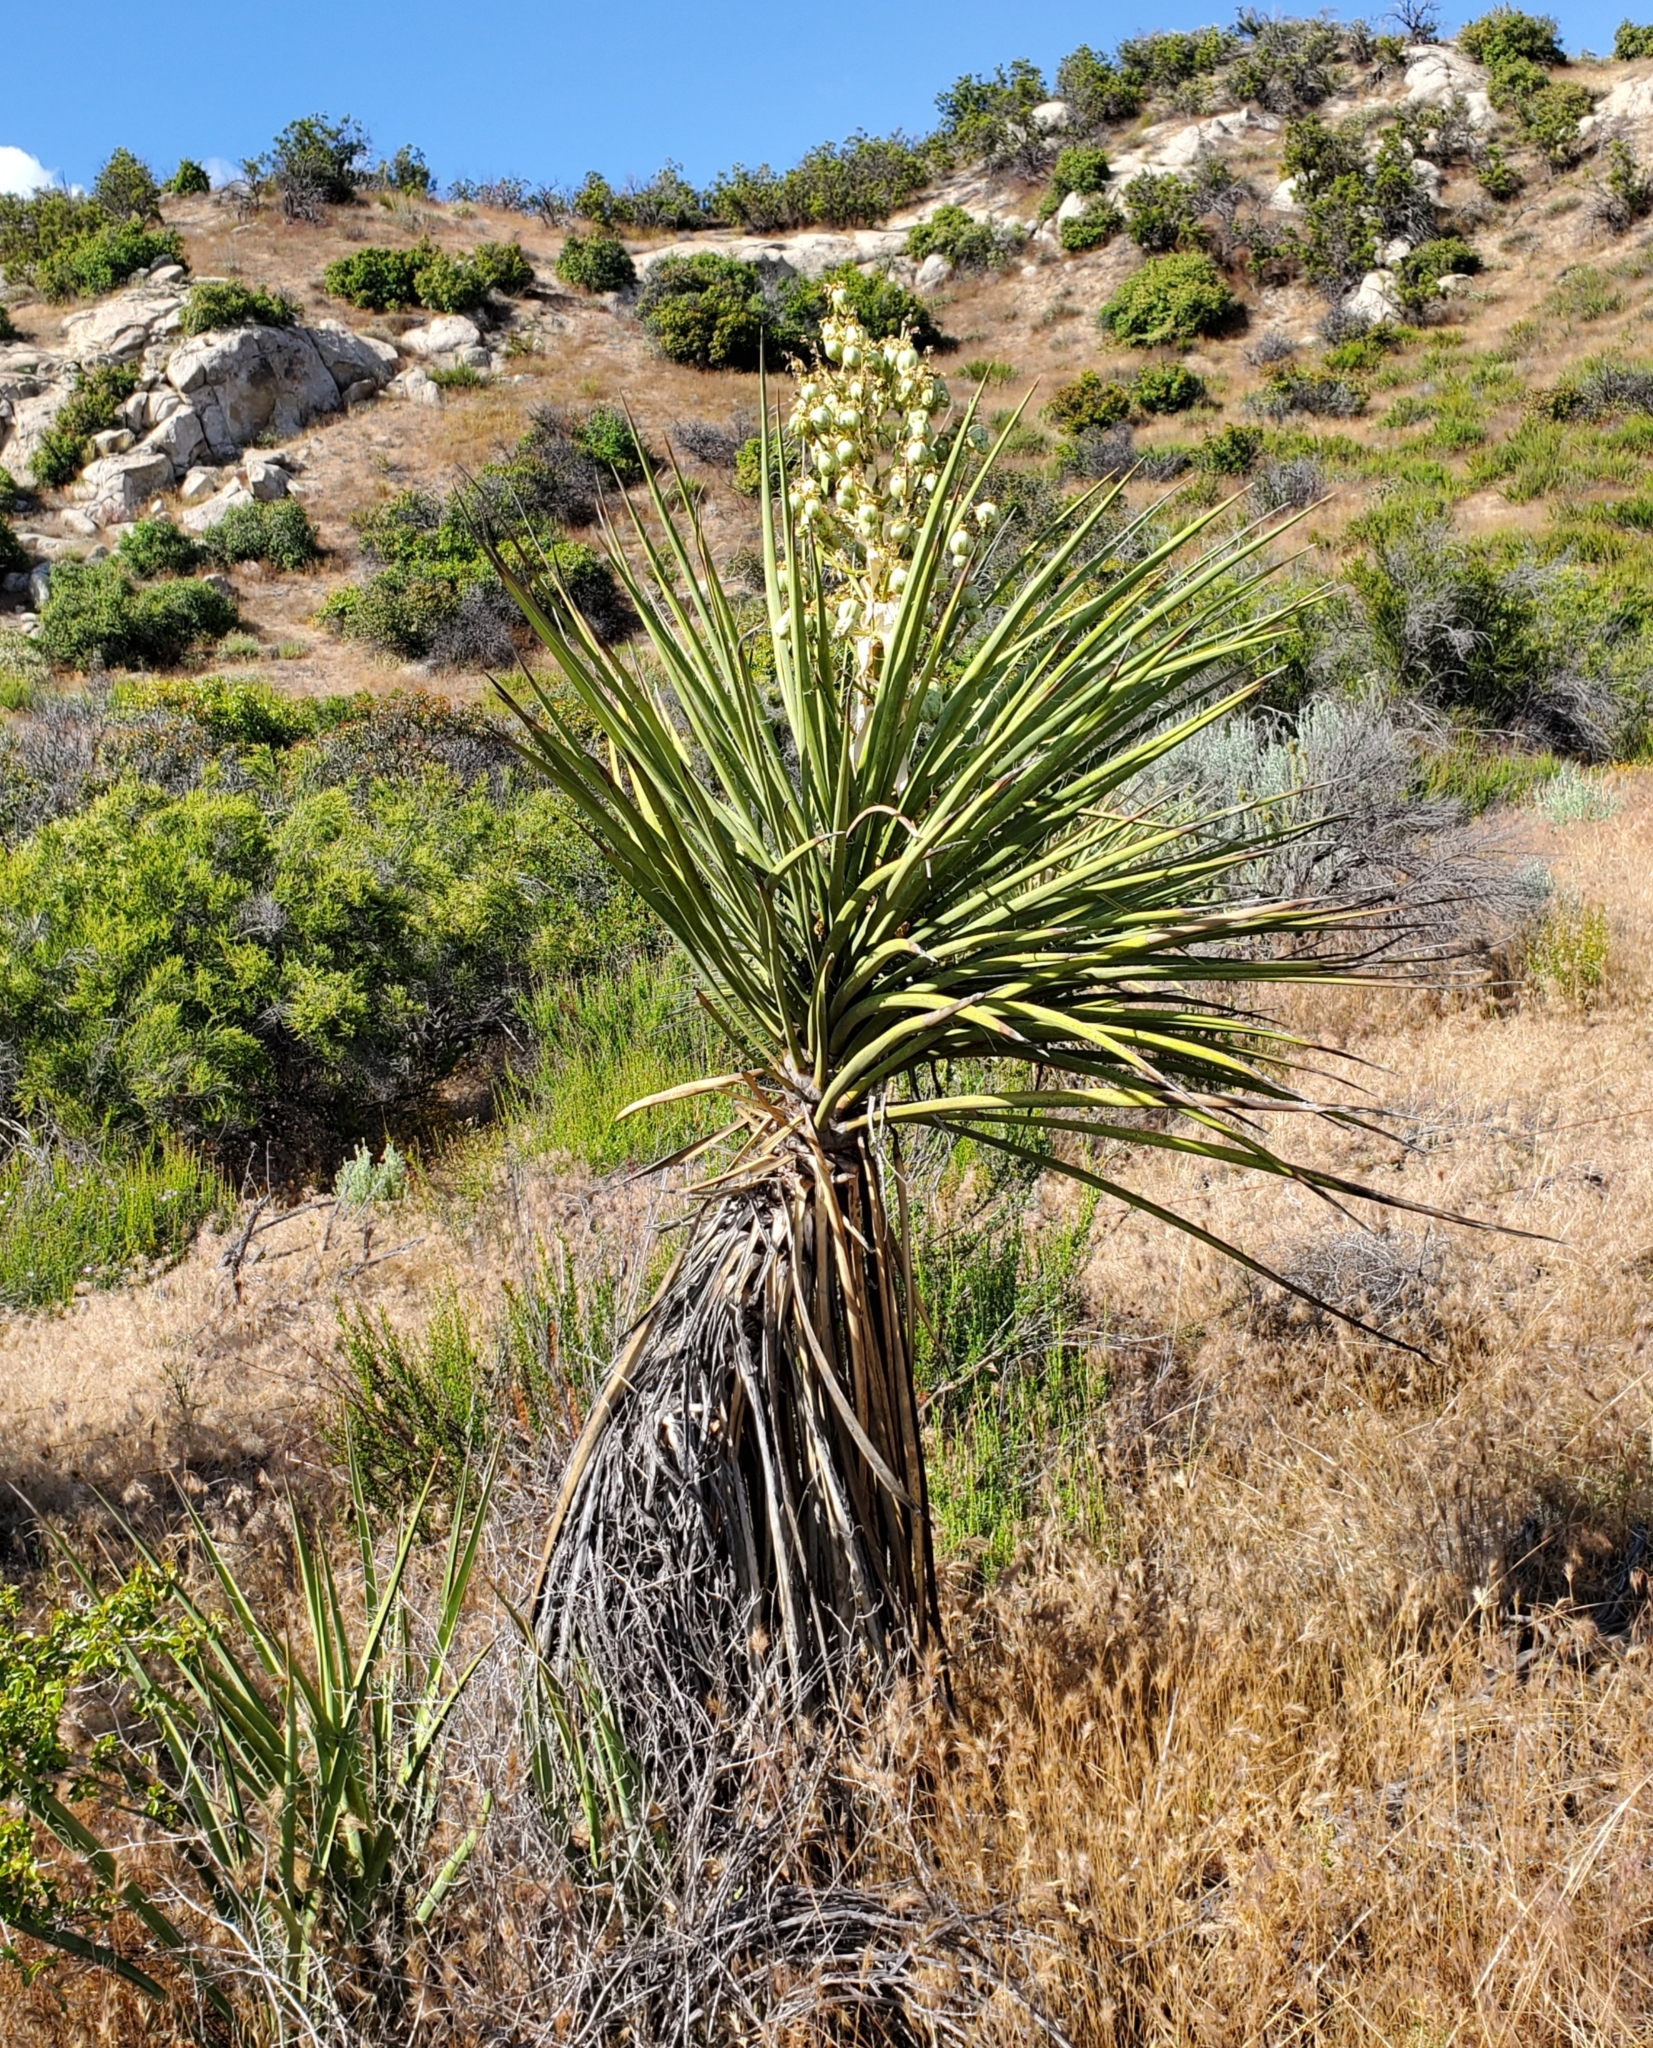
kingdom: Plantae
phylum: Tracheophyta
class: Liliopsida
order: Asparagales
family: Asparagaceae
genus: Yucca
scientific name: Yucca schidigera
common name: Mojave yucca
